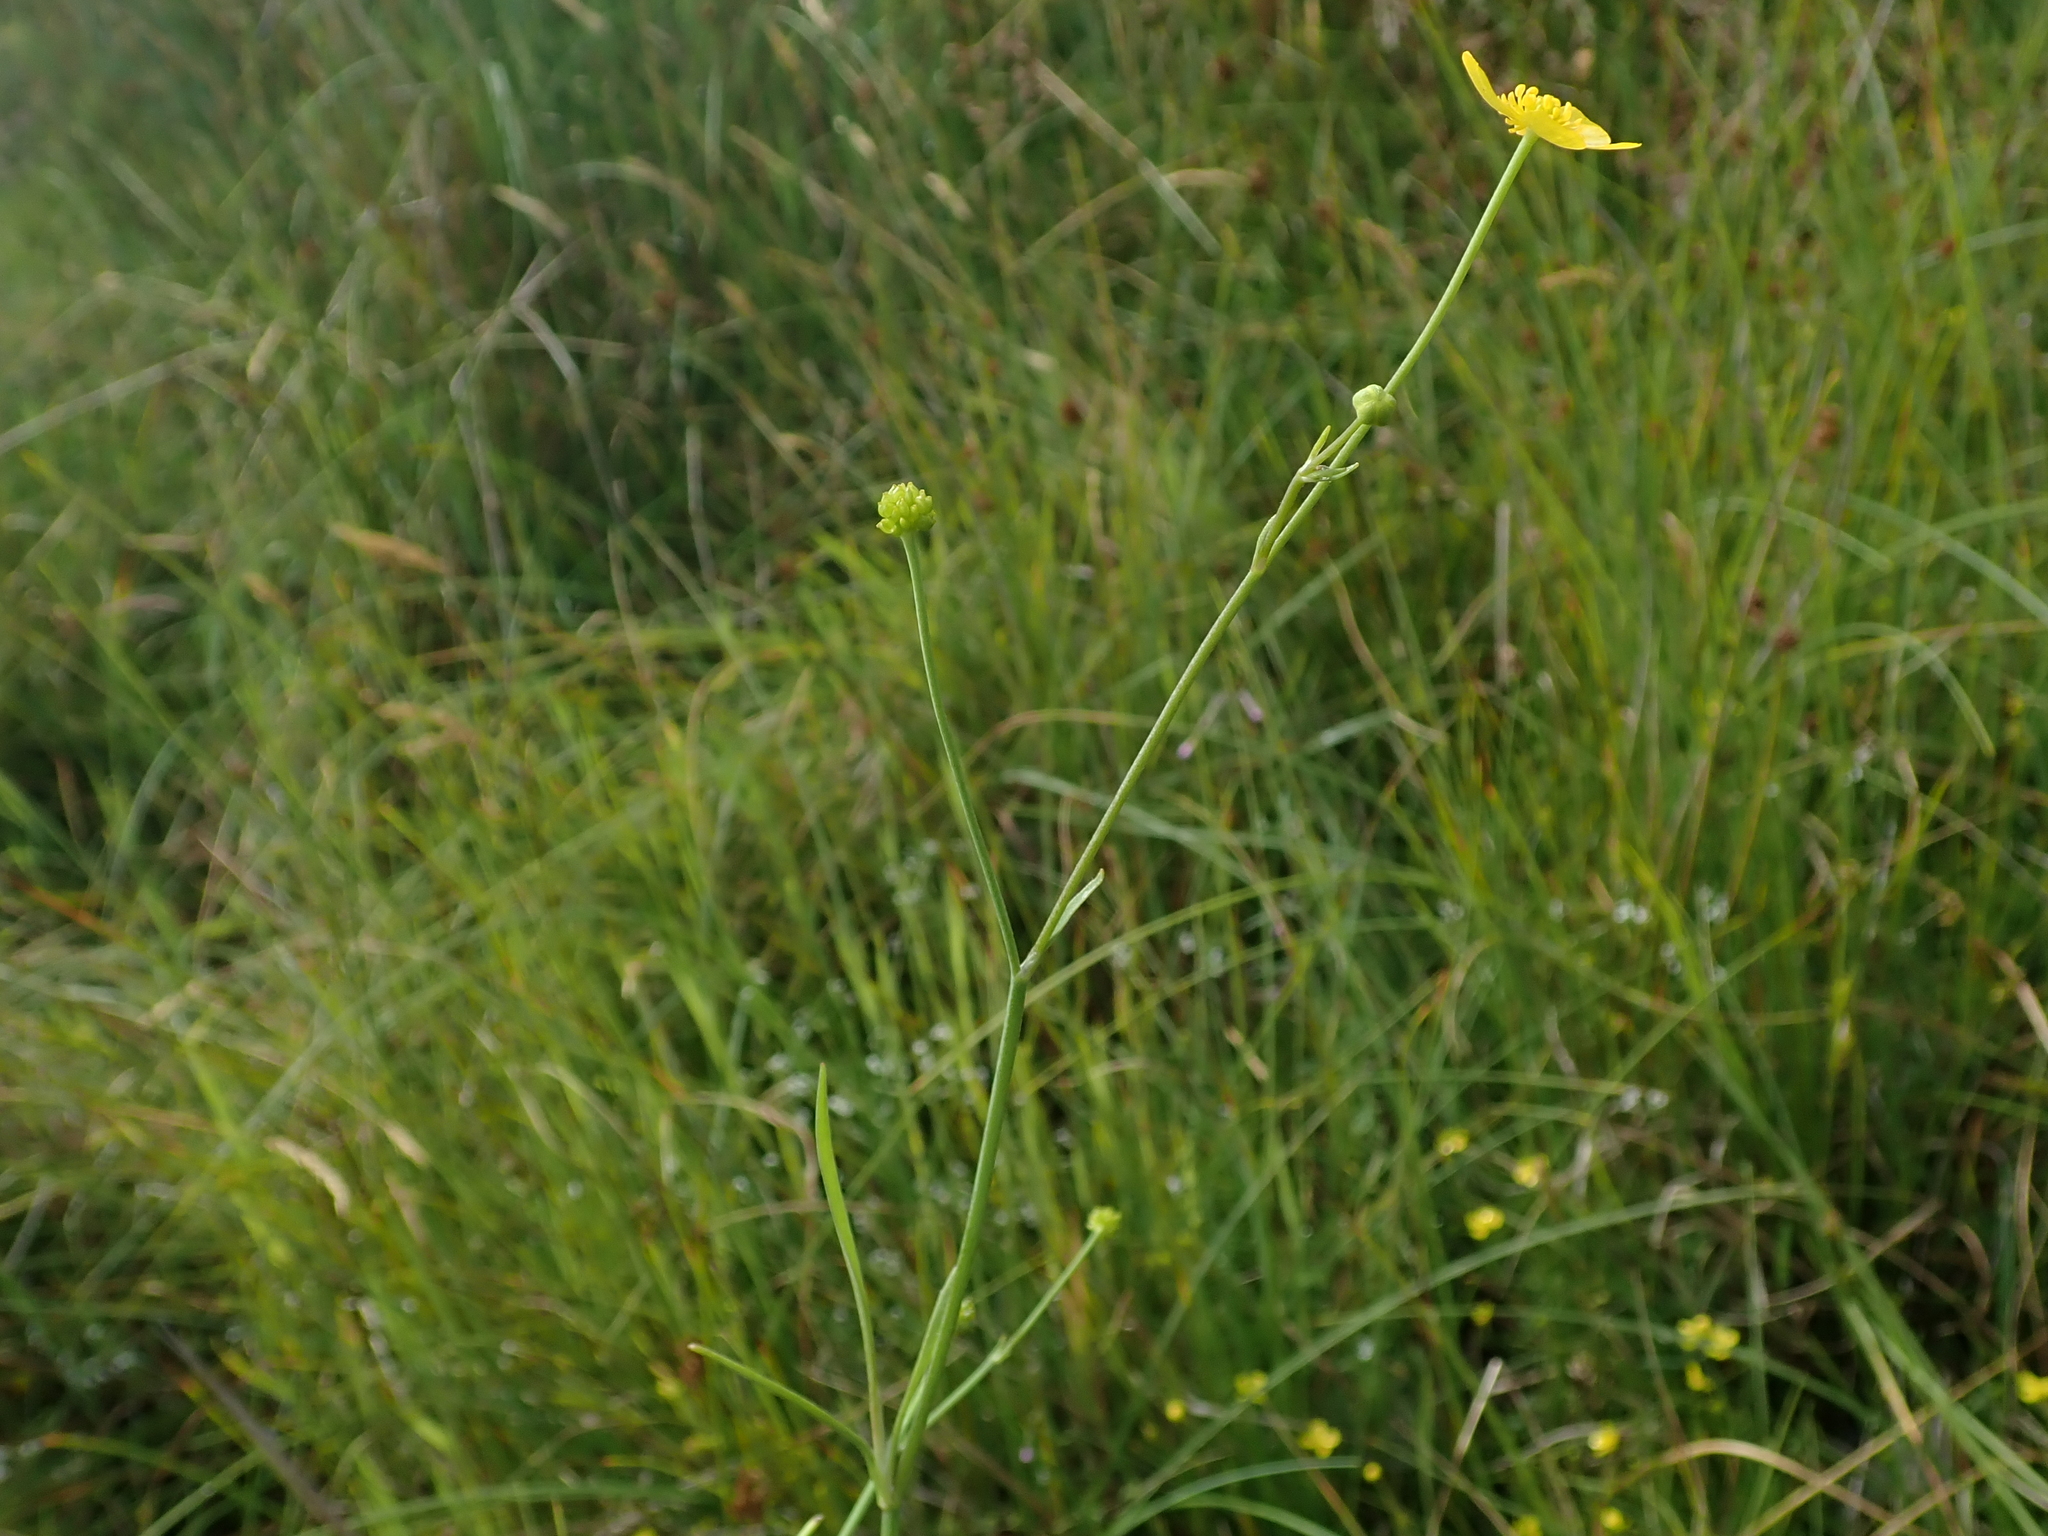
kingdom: Plantae
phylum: Tracheophyta
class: Magnoliopsida
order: Ranunculales
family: Ranunculaceae
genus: Ranunculus
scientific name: Ranunculus flammula
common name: Lesser spearwort
